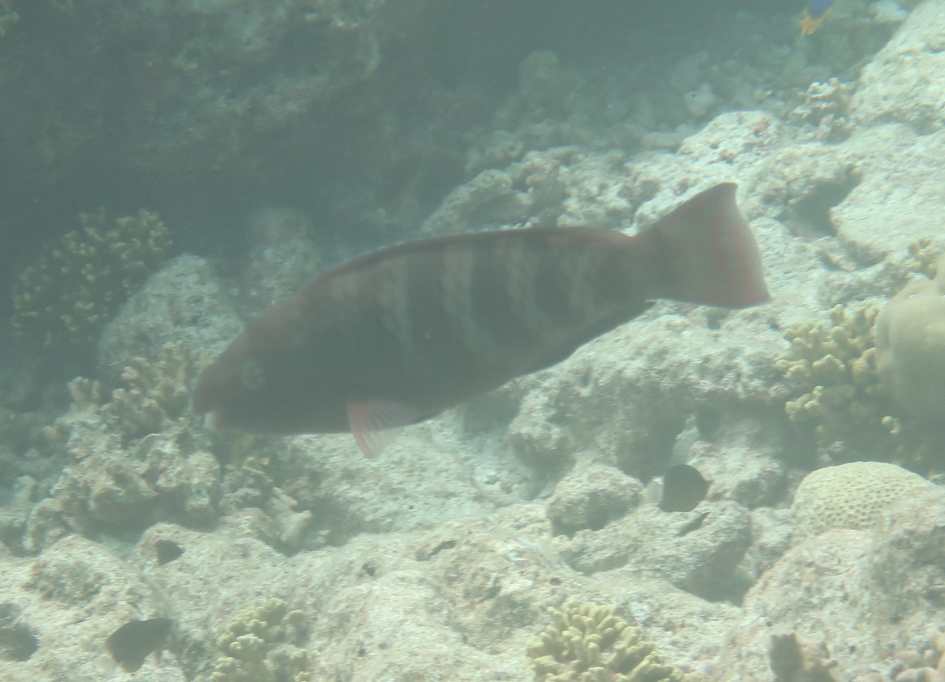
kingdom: Animalia
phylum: Chordata
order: Perciformes
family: Scaridae
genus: Scarus
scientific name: Scarus russelii
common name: Eclipse parrotfish
